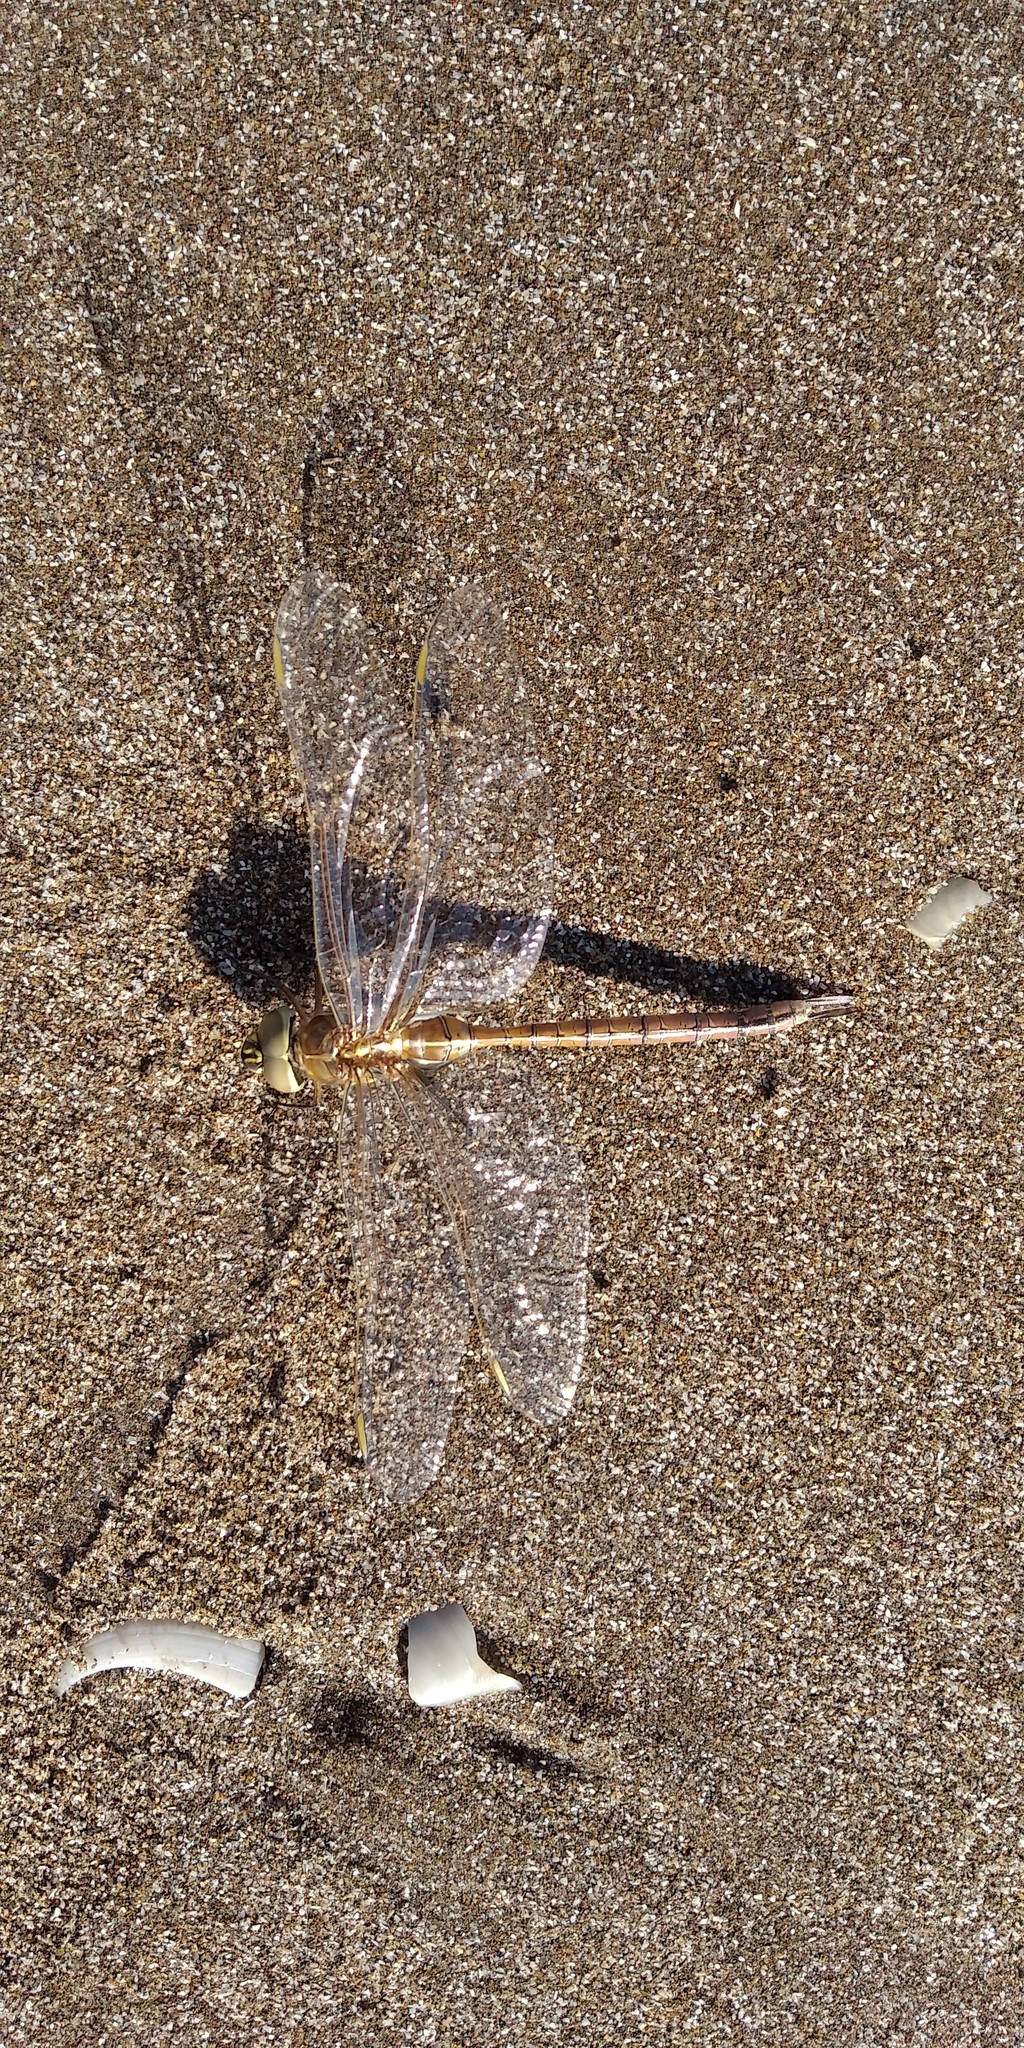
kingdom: Animalia
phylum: Arthropoda
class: Insecta
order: Odonata
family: Aeshnidae
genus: Rhionaeschna
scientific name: Rhionaeschna bonariensis
